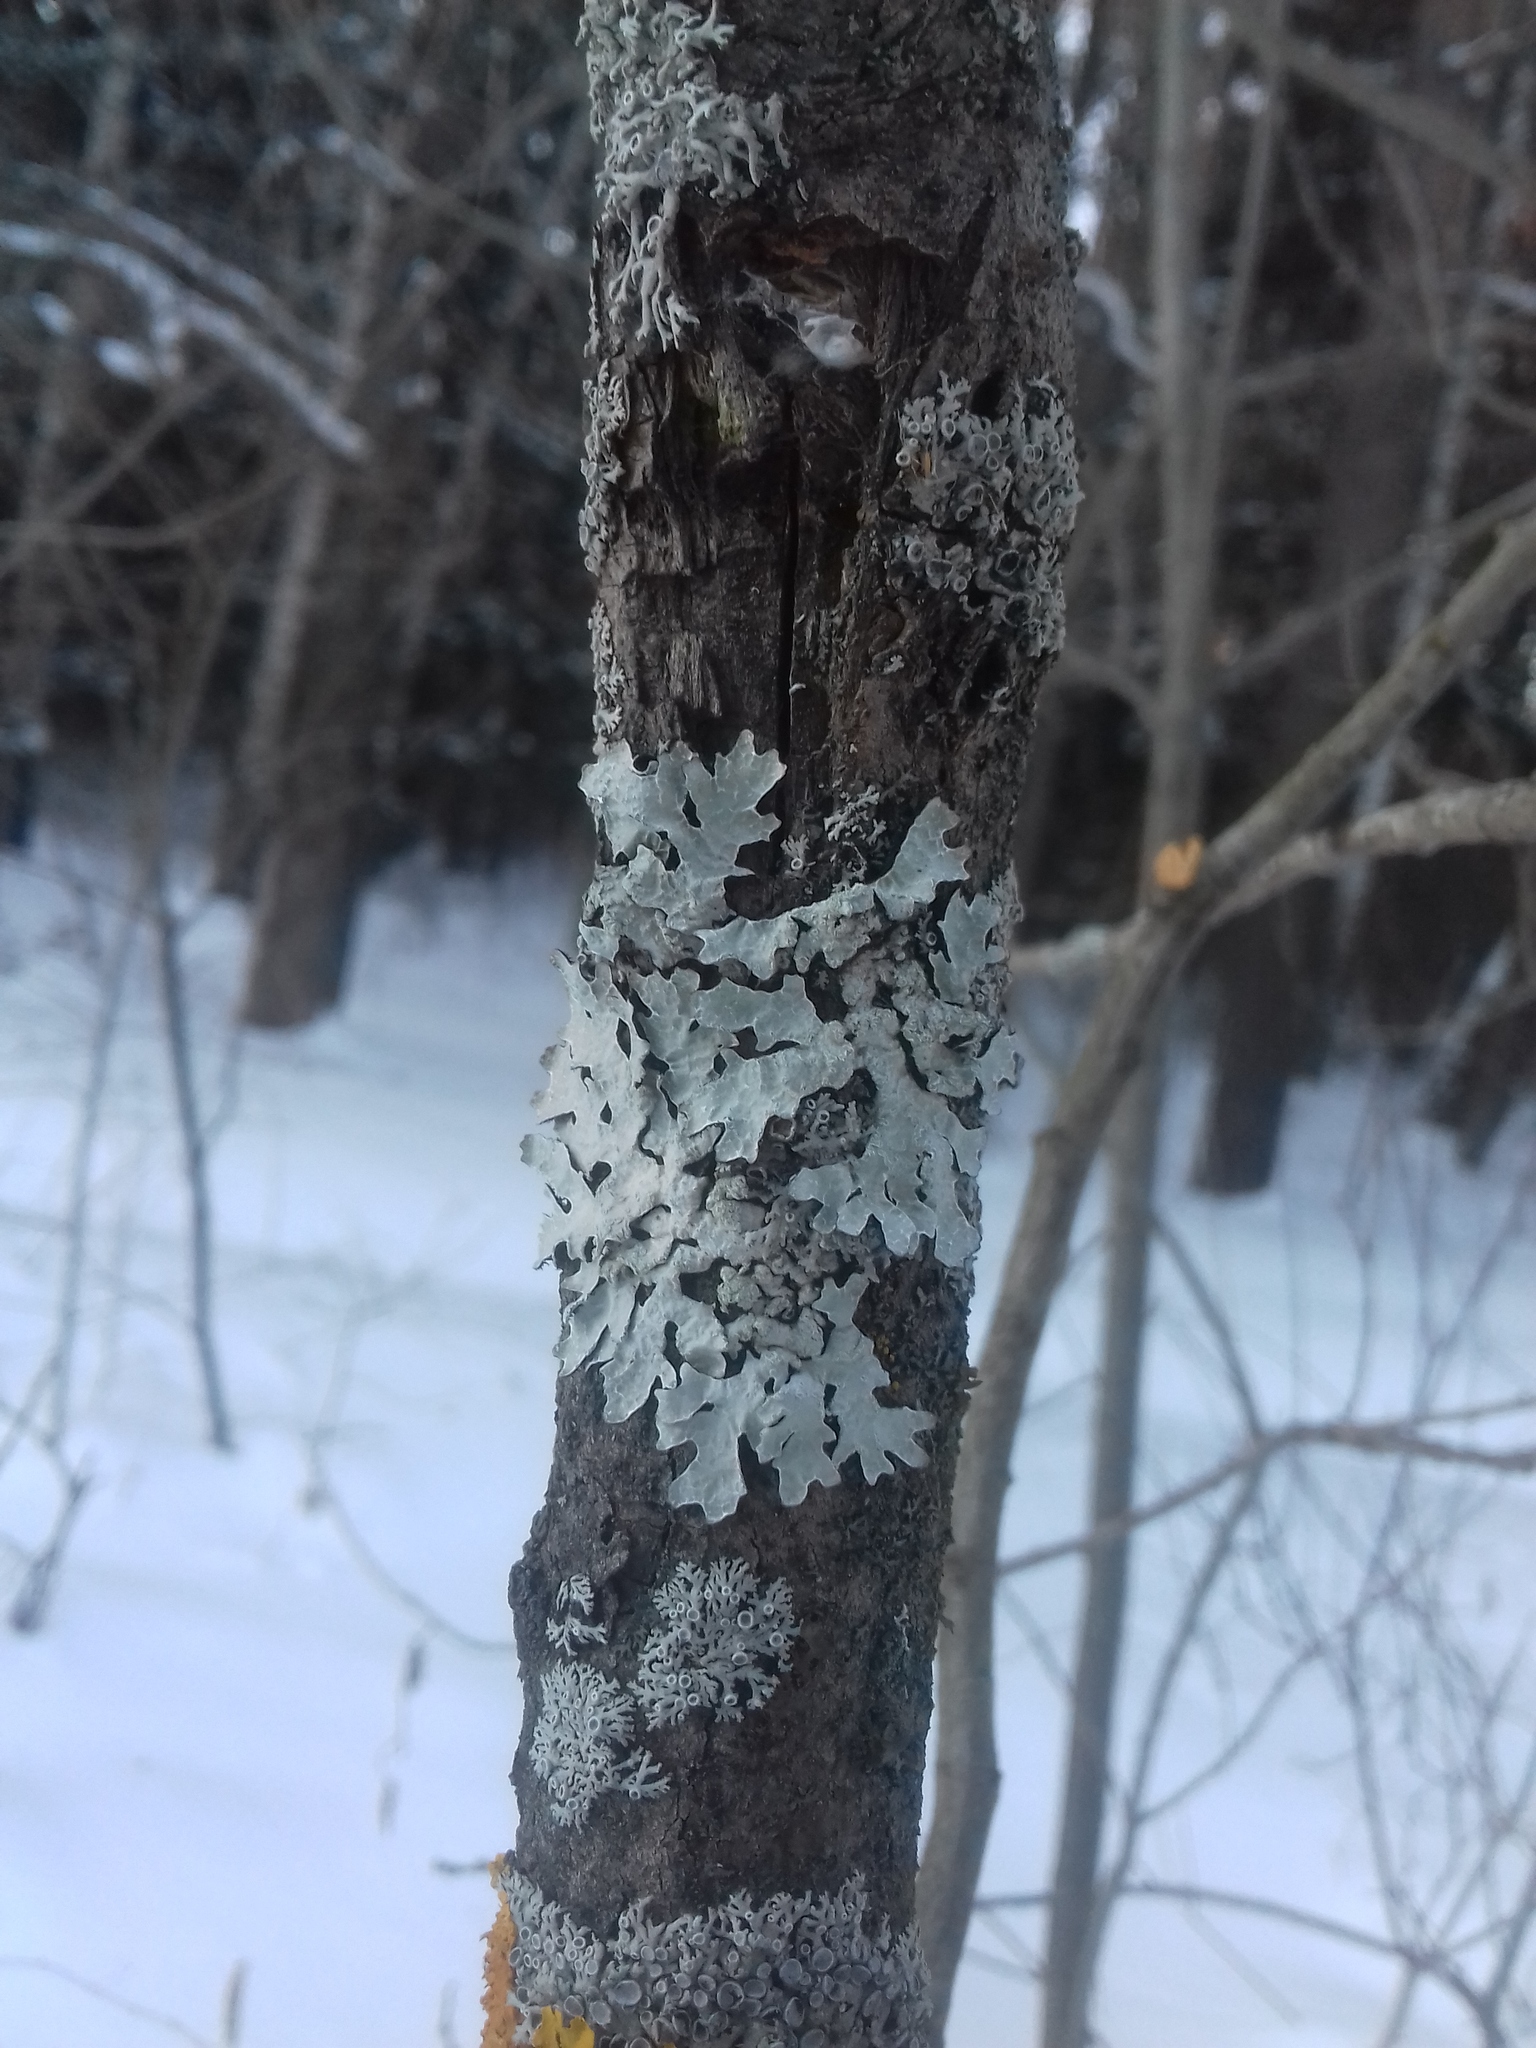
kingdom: Fungi
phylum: Ascomycota
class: Lecanoromycetes
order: Lecanorales
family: Parmeliaceae
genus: Parmelia
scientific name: Parmelia sulcata
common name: Netted shield lichen
